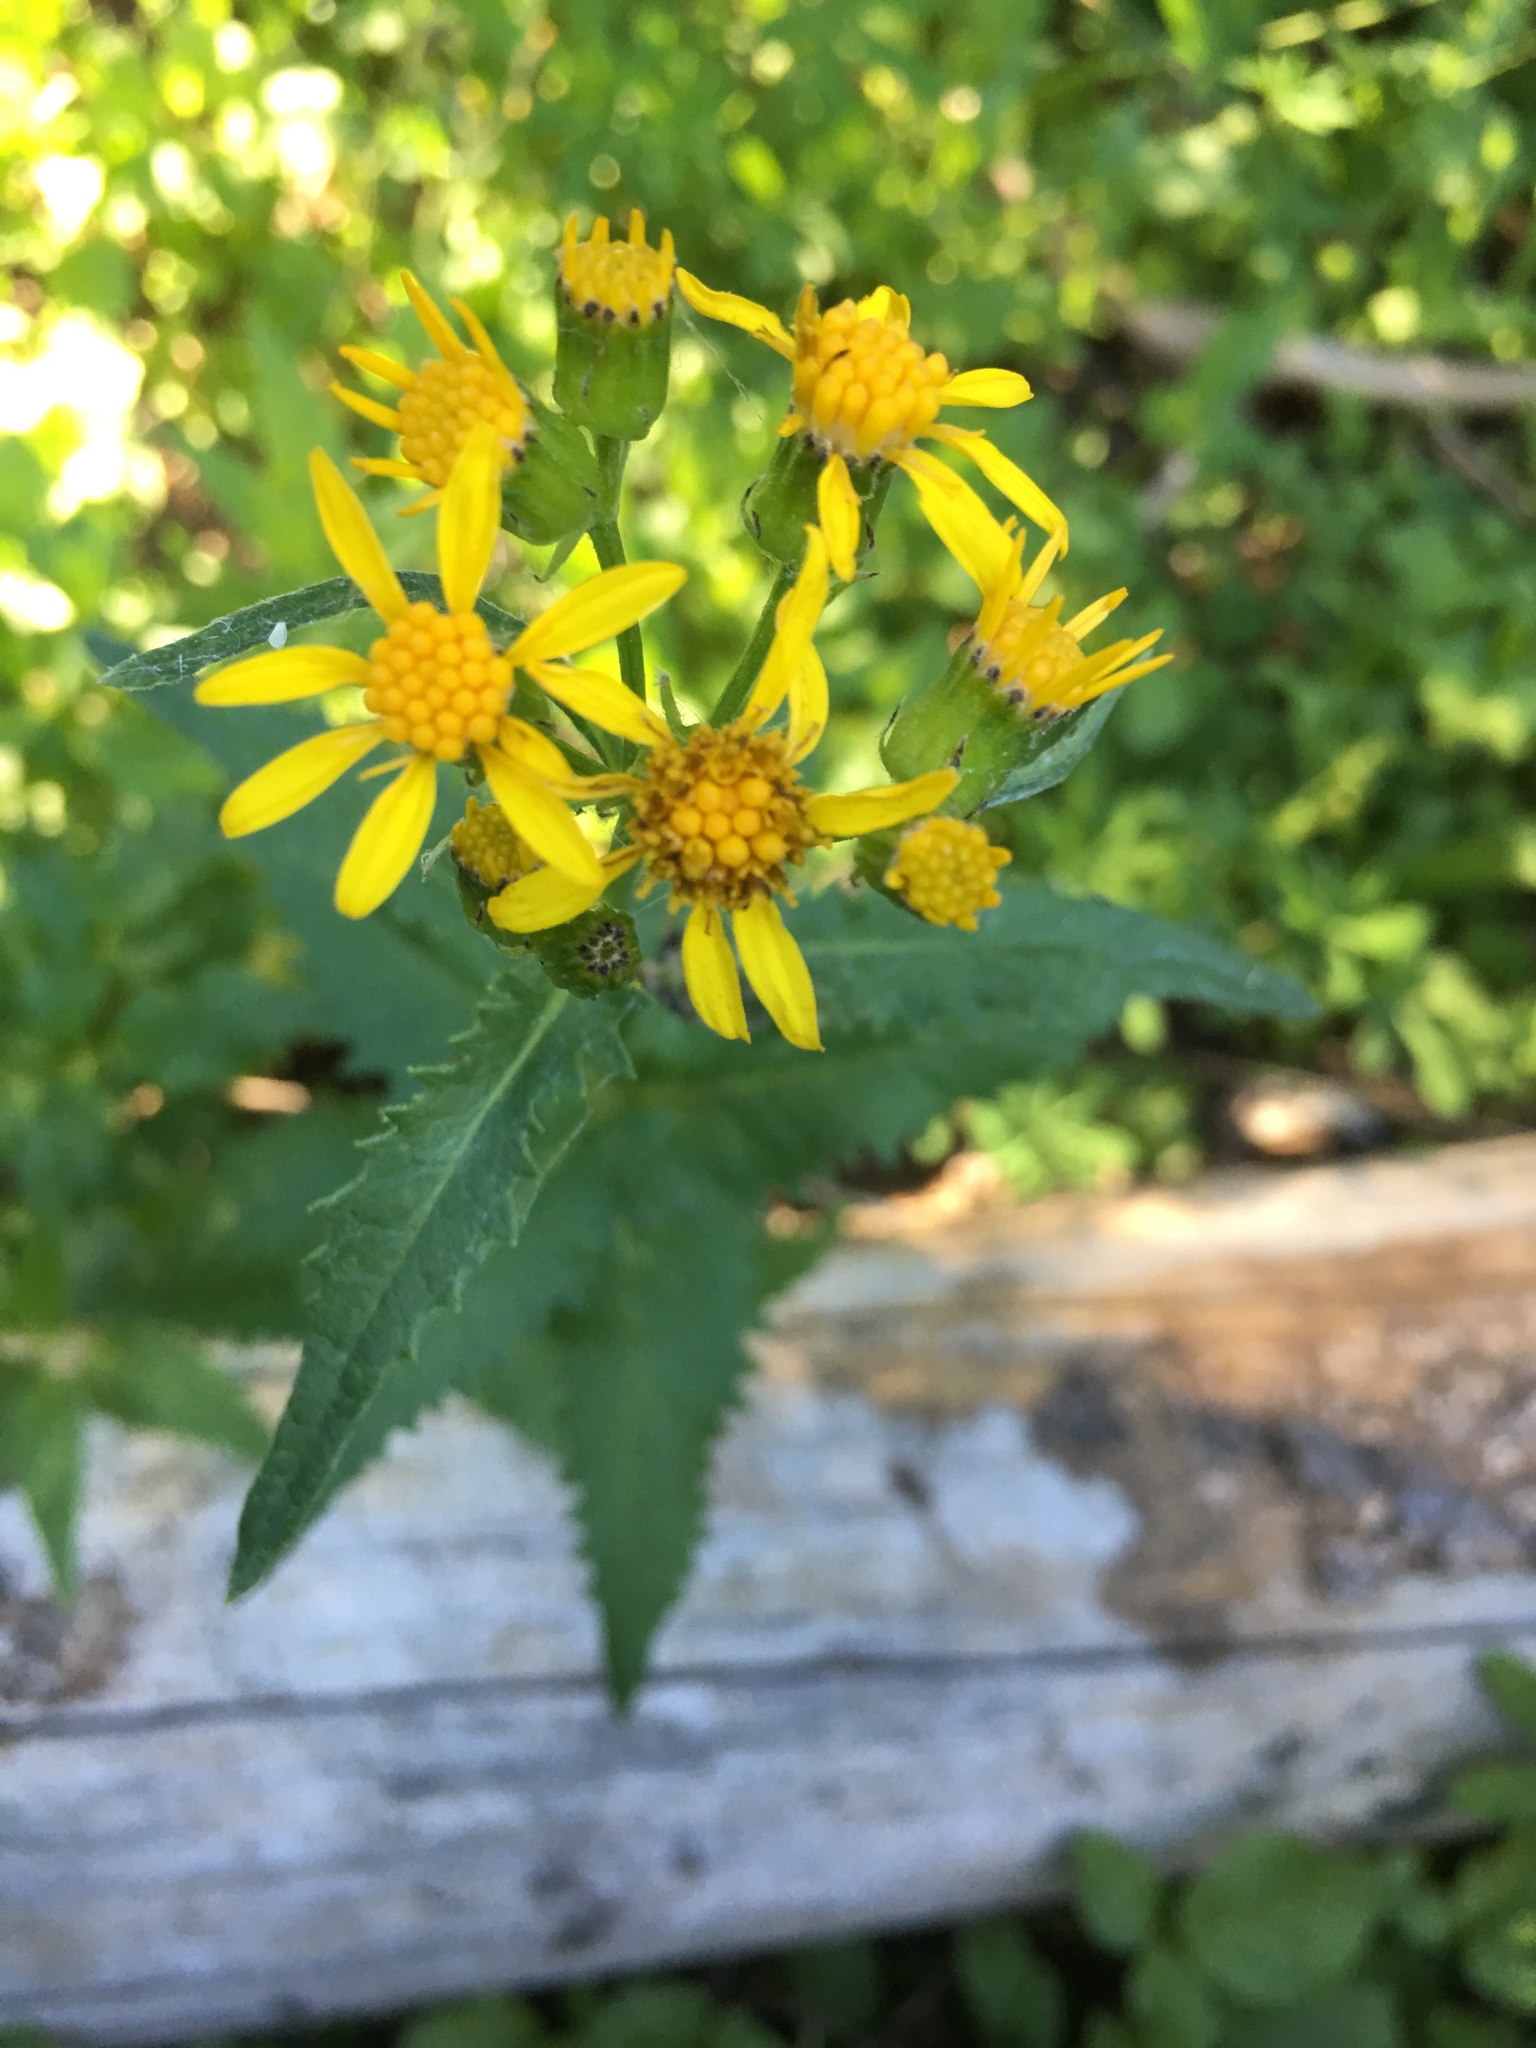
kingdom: Plantae
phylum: Tracheophyta
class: Magnoliopsida
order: Asterales
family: Asteraceae
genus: Senecio
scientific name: Senecio triangularis
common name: Arrowleaf butterweed
